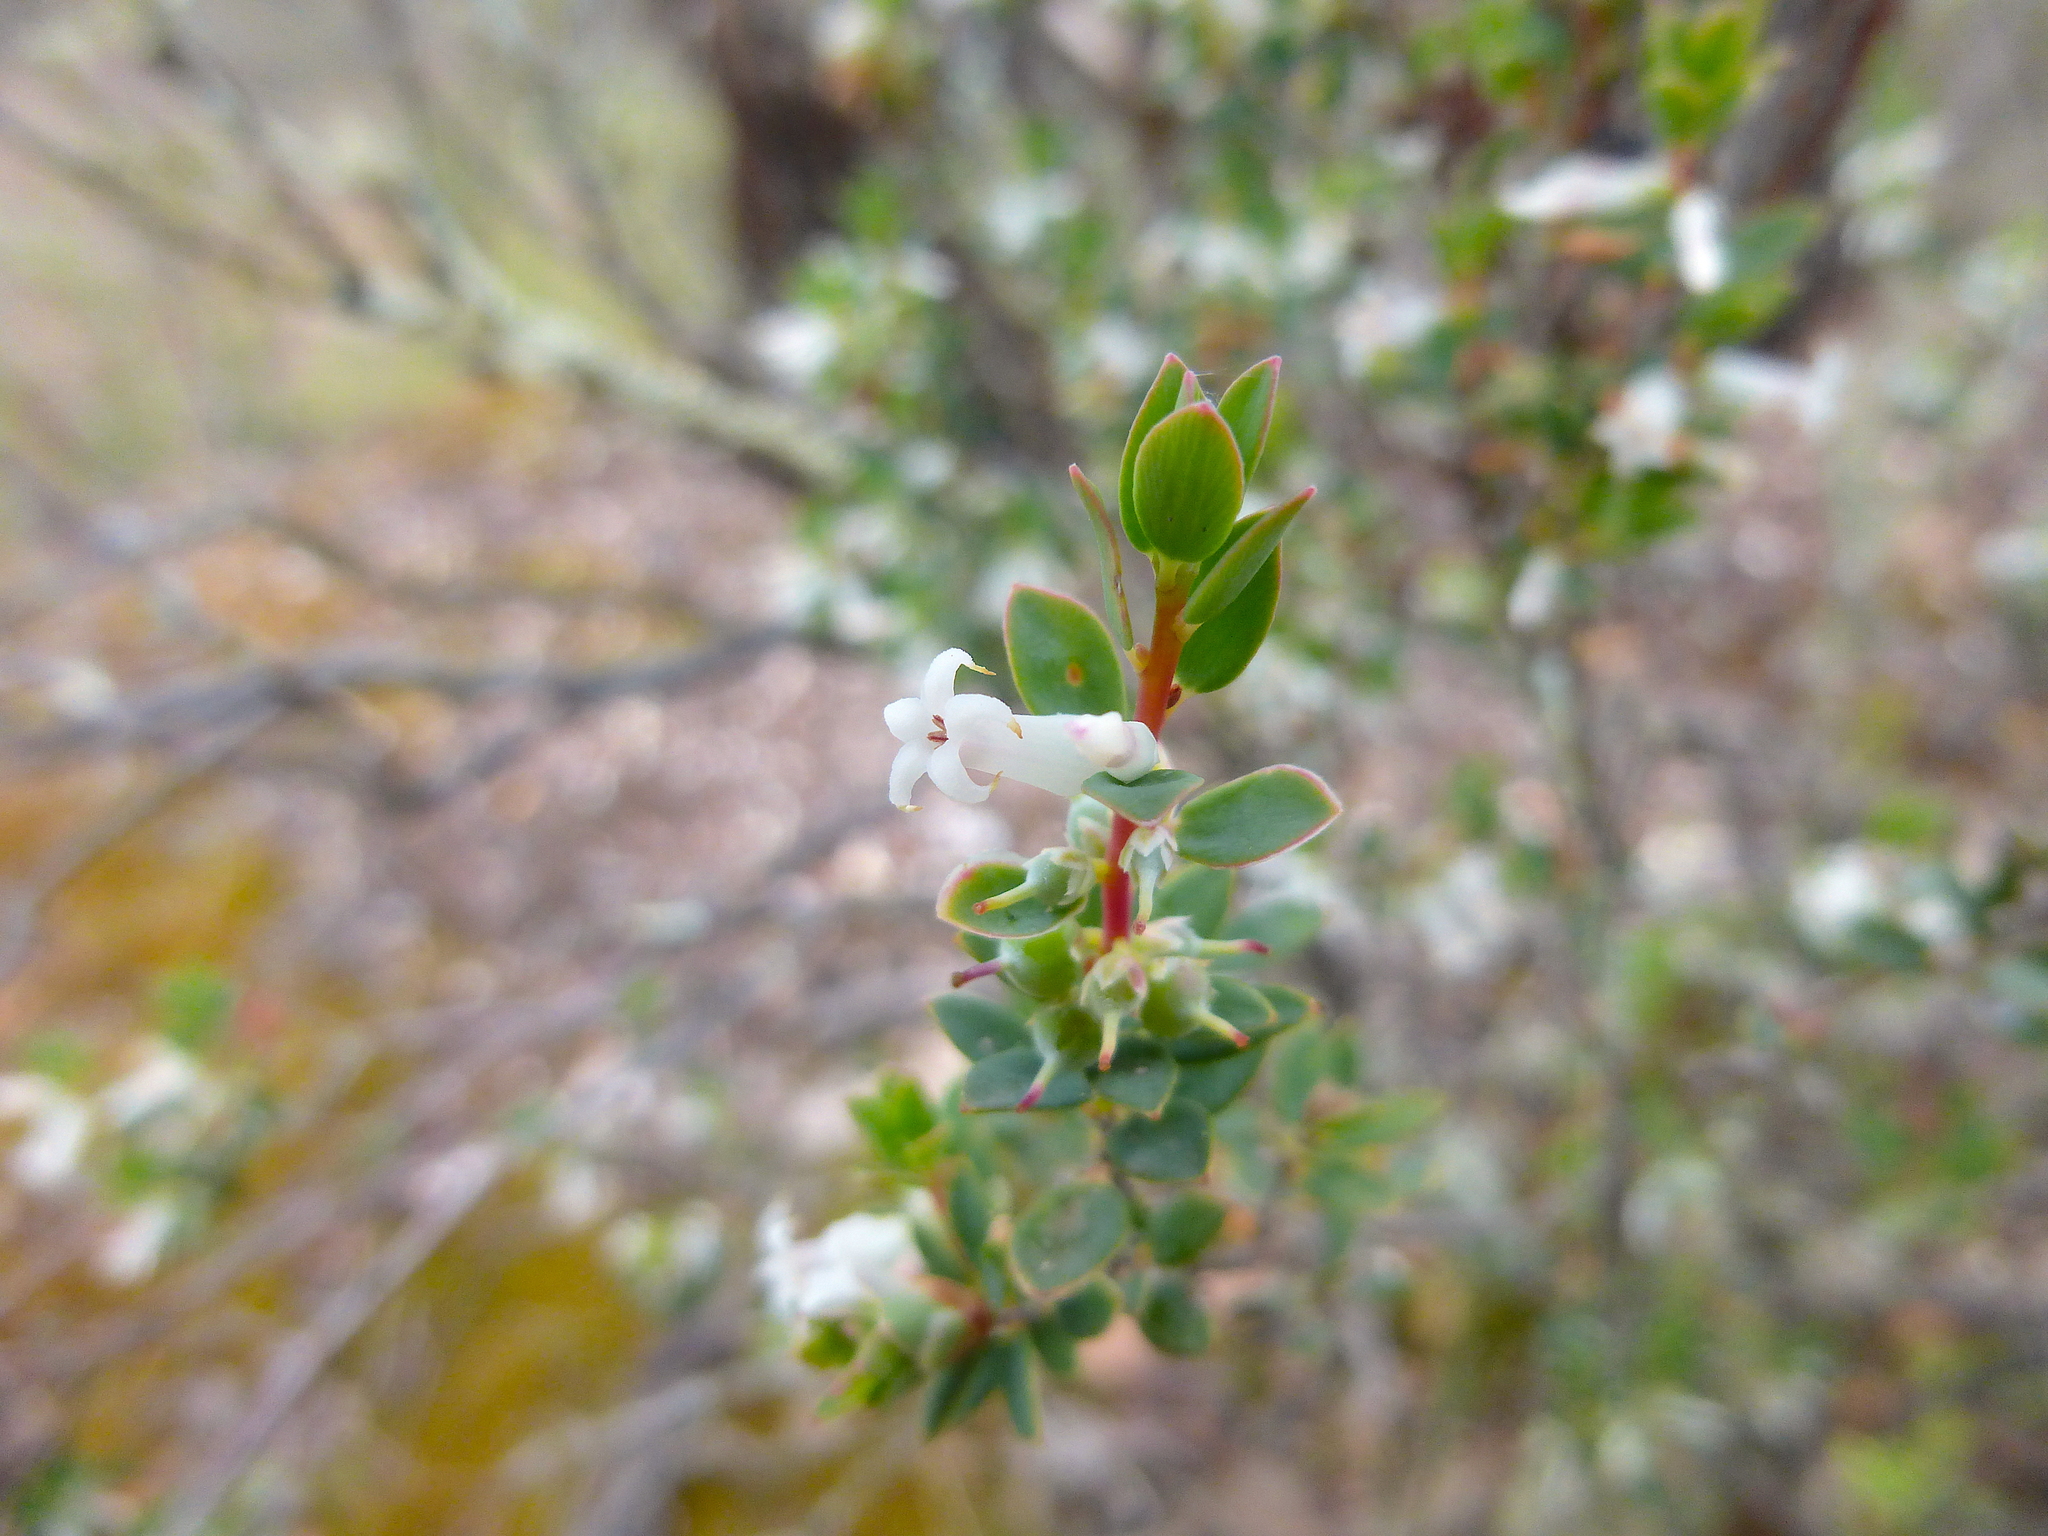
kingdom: Plantae
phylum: Tracheophyta
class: Magnoliopsida
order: Ericales
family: Ericaceae
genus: Brachyloma
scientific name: Brachyloma daphnoides
